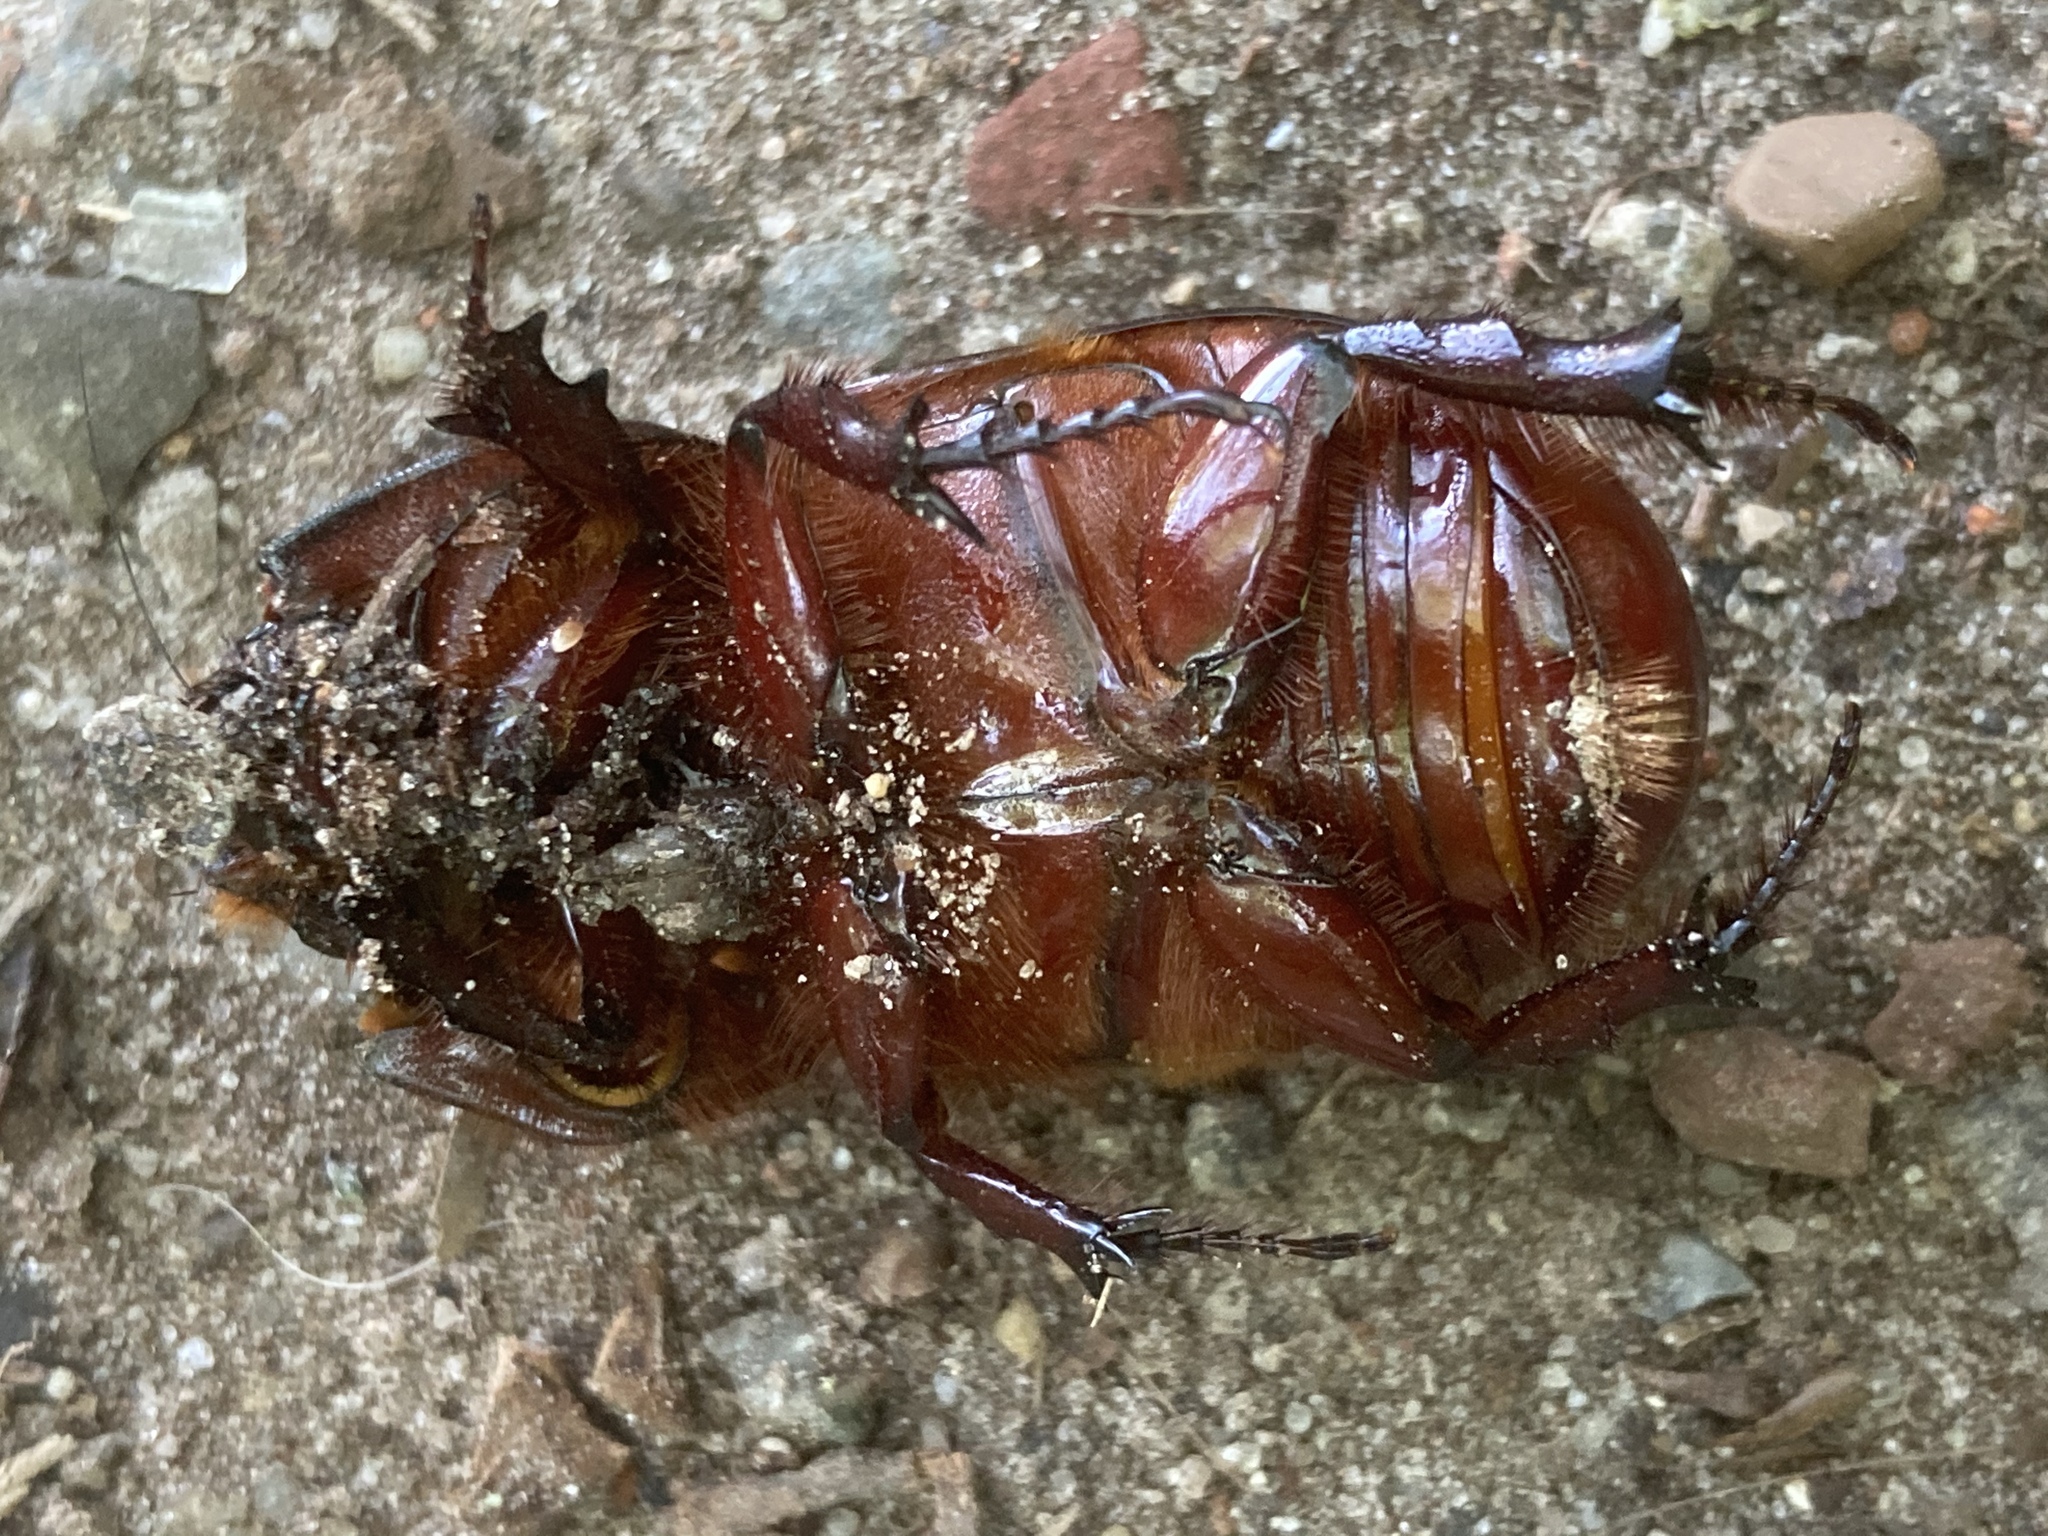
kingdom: Animalia
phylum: Arthropoda
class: Insecta
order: Coleoptera
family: Scarabaeidae
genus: Oryctes
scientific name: Oryctes nasicornis
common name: European rhinoceros beetle
